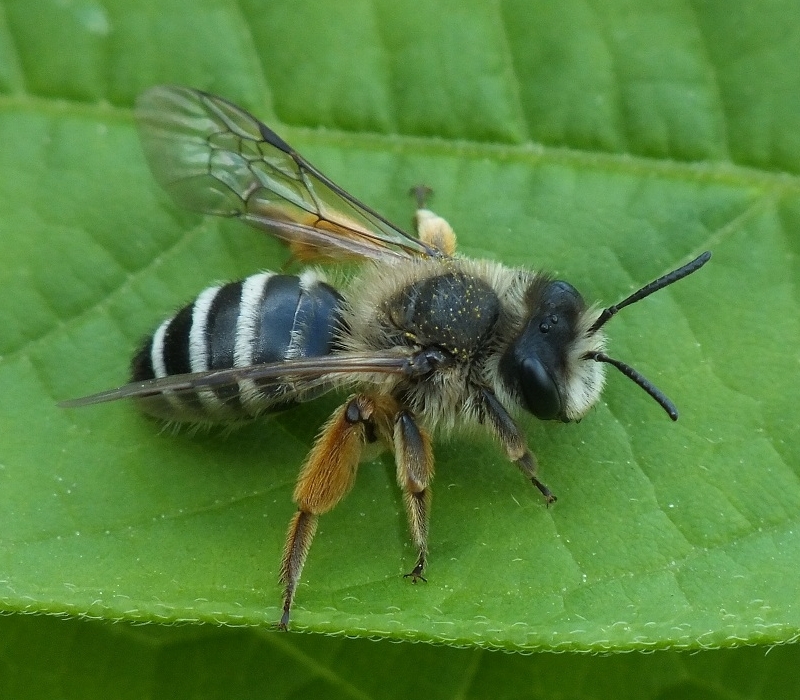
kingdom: Animalia
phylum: Arthropoda
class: Insecta
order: Hymenoptera
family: Andrenidae
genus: Andrena
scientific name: Andrena flavipes
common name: Yellow-legged mining bee
